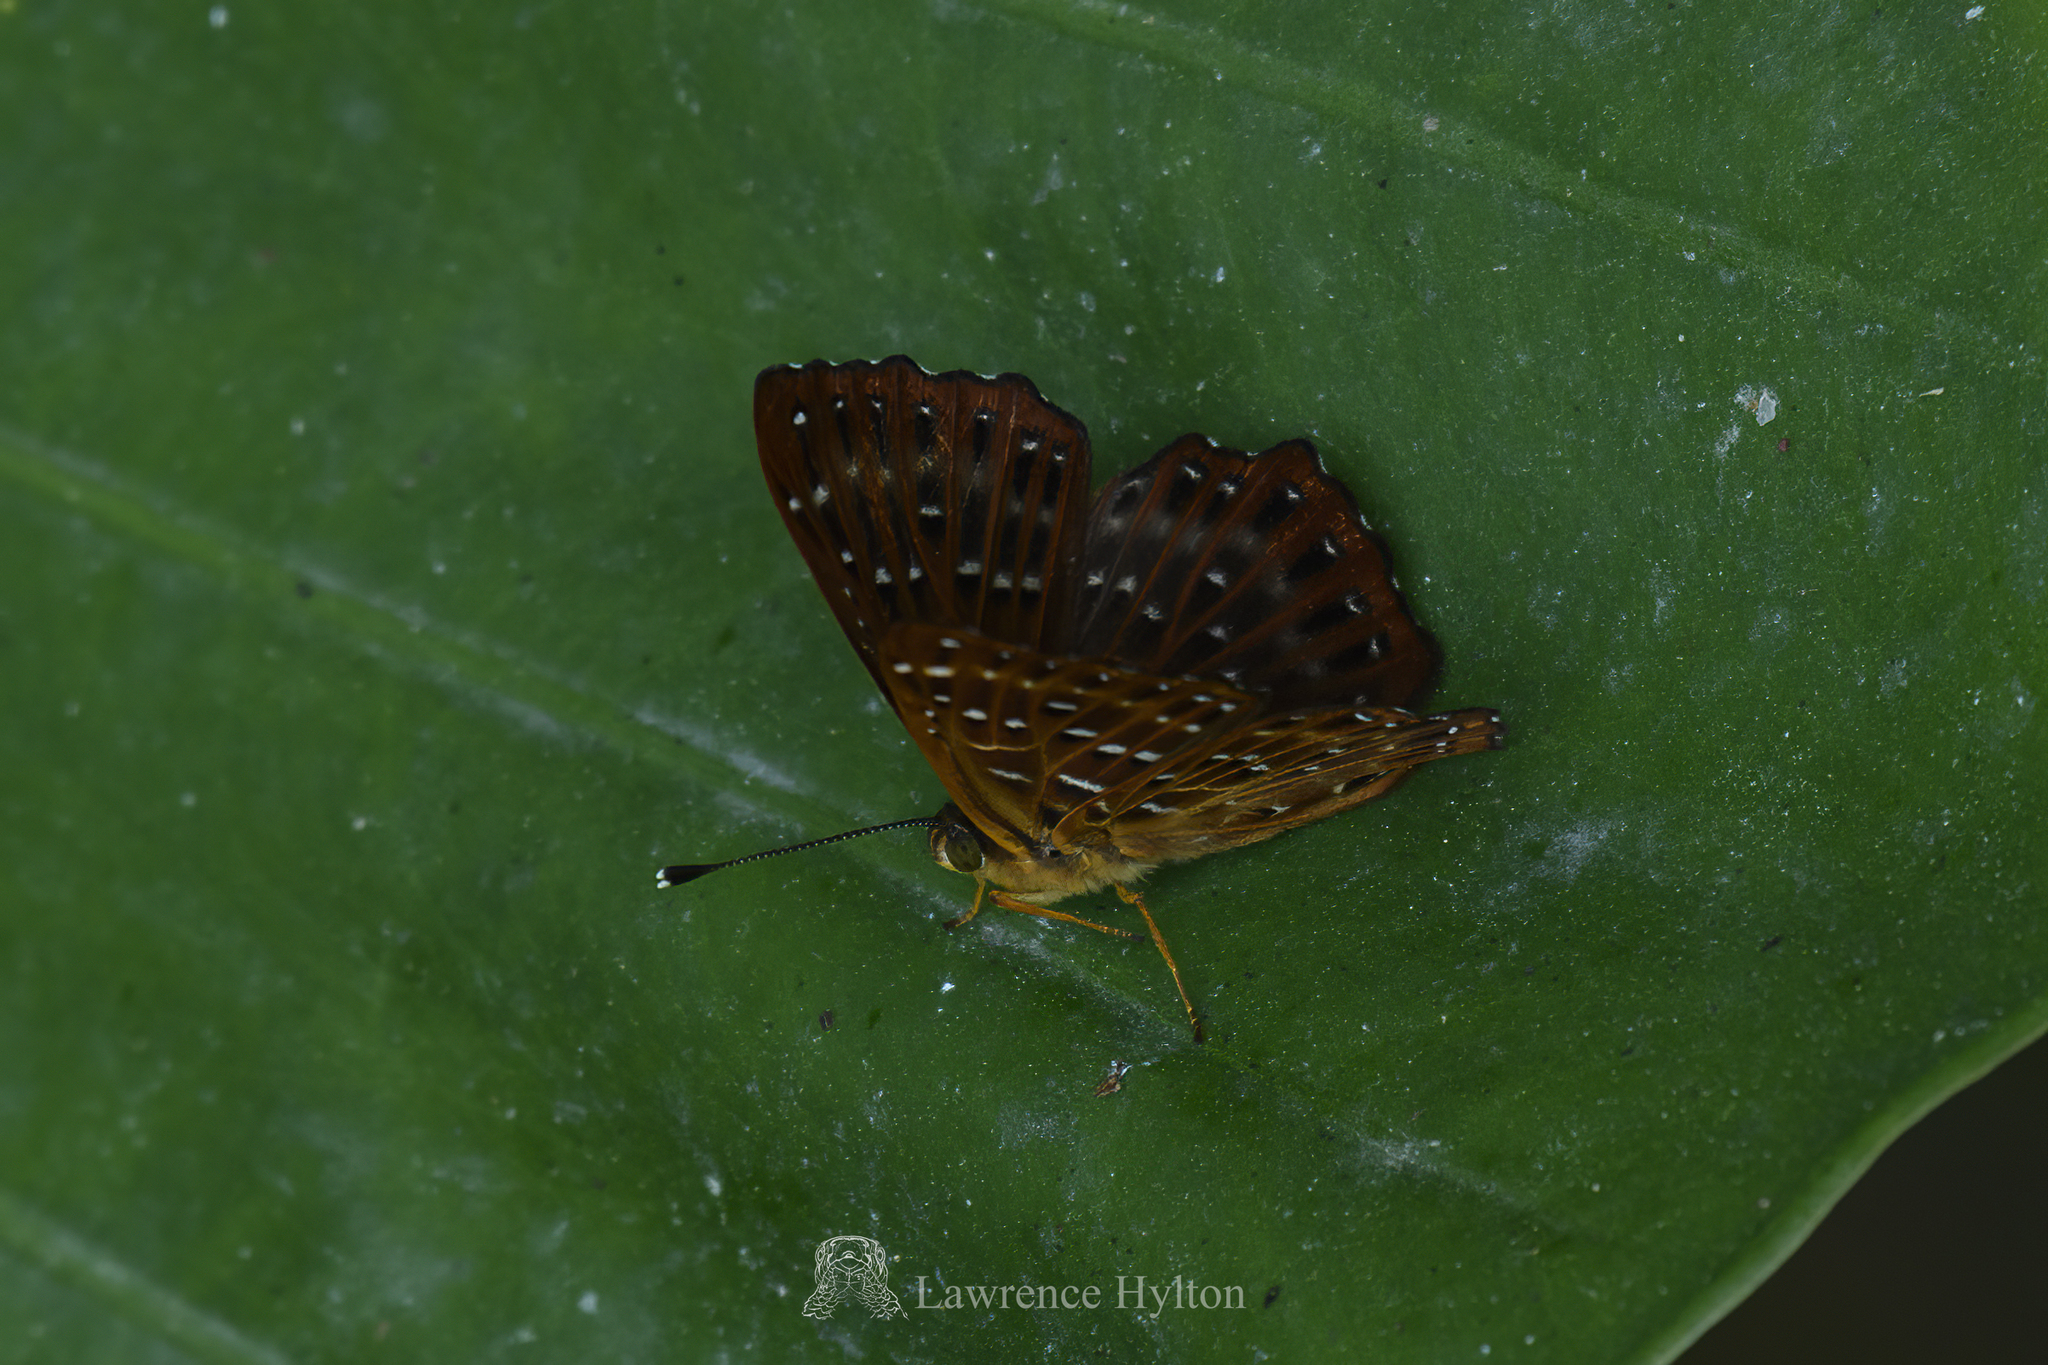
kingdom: Animalia
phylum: Arthropoda
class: Insecta
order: Lepidoptera
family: Riodinidae
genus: Zemeros
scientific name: Zemeros flegyas
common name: Punchinello
